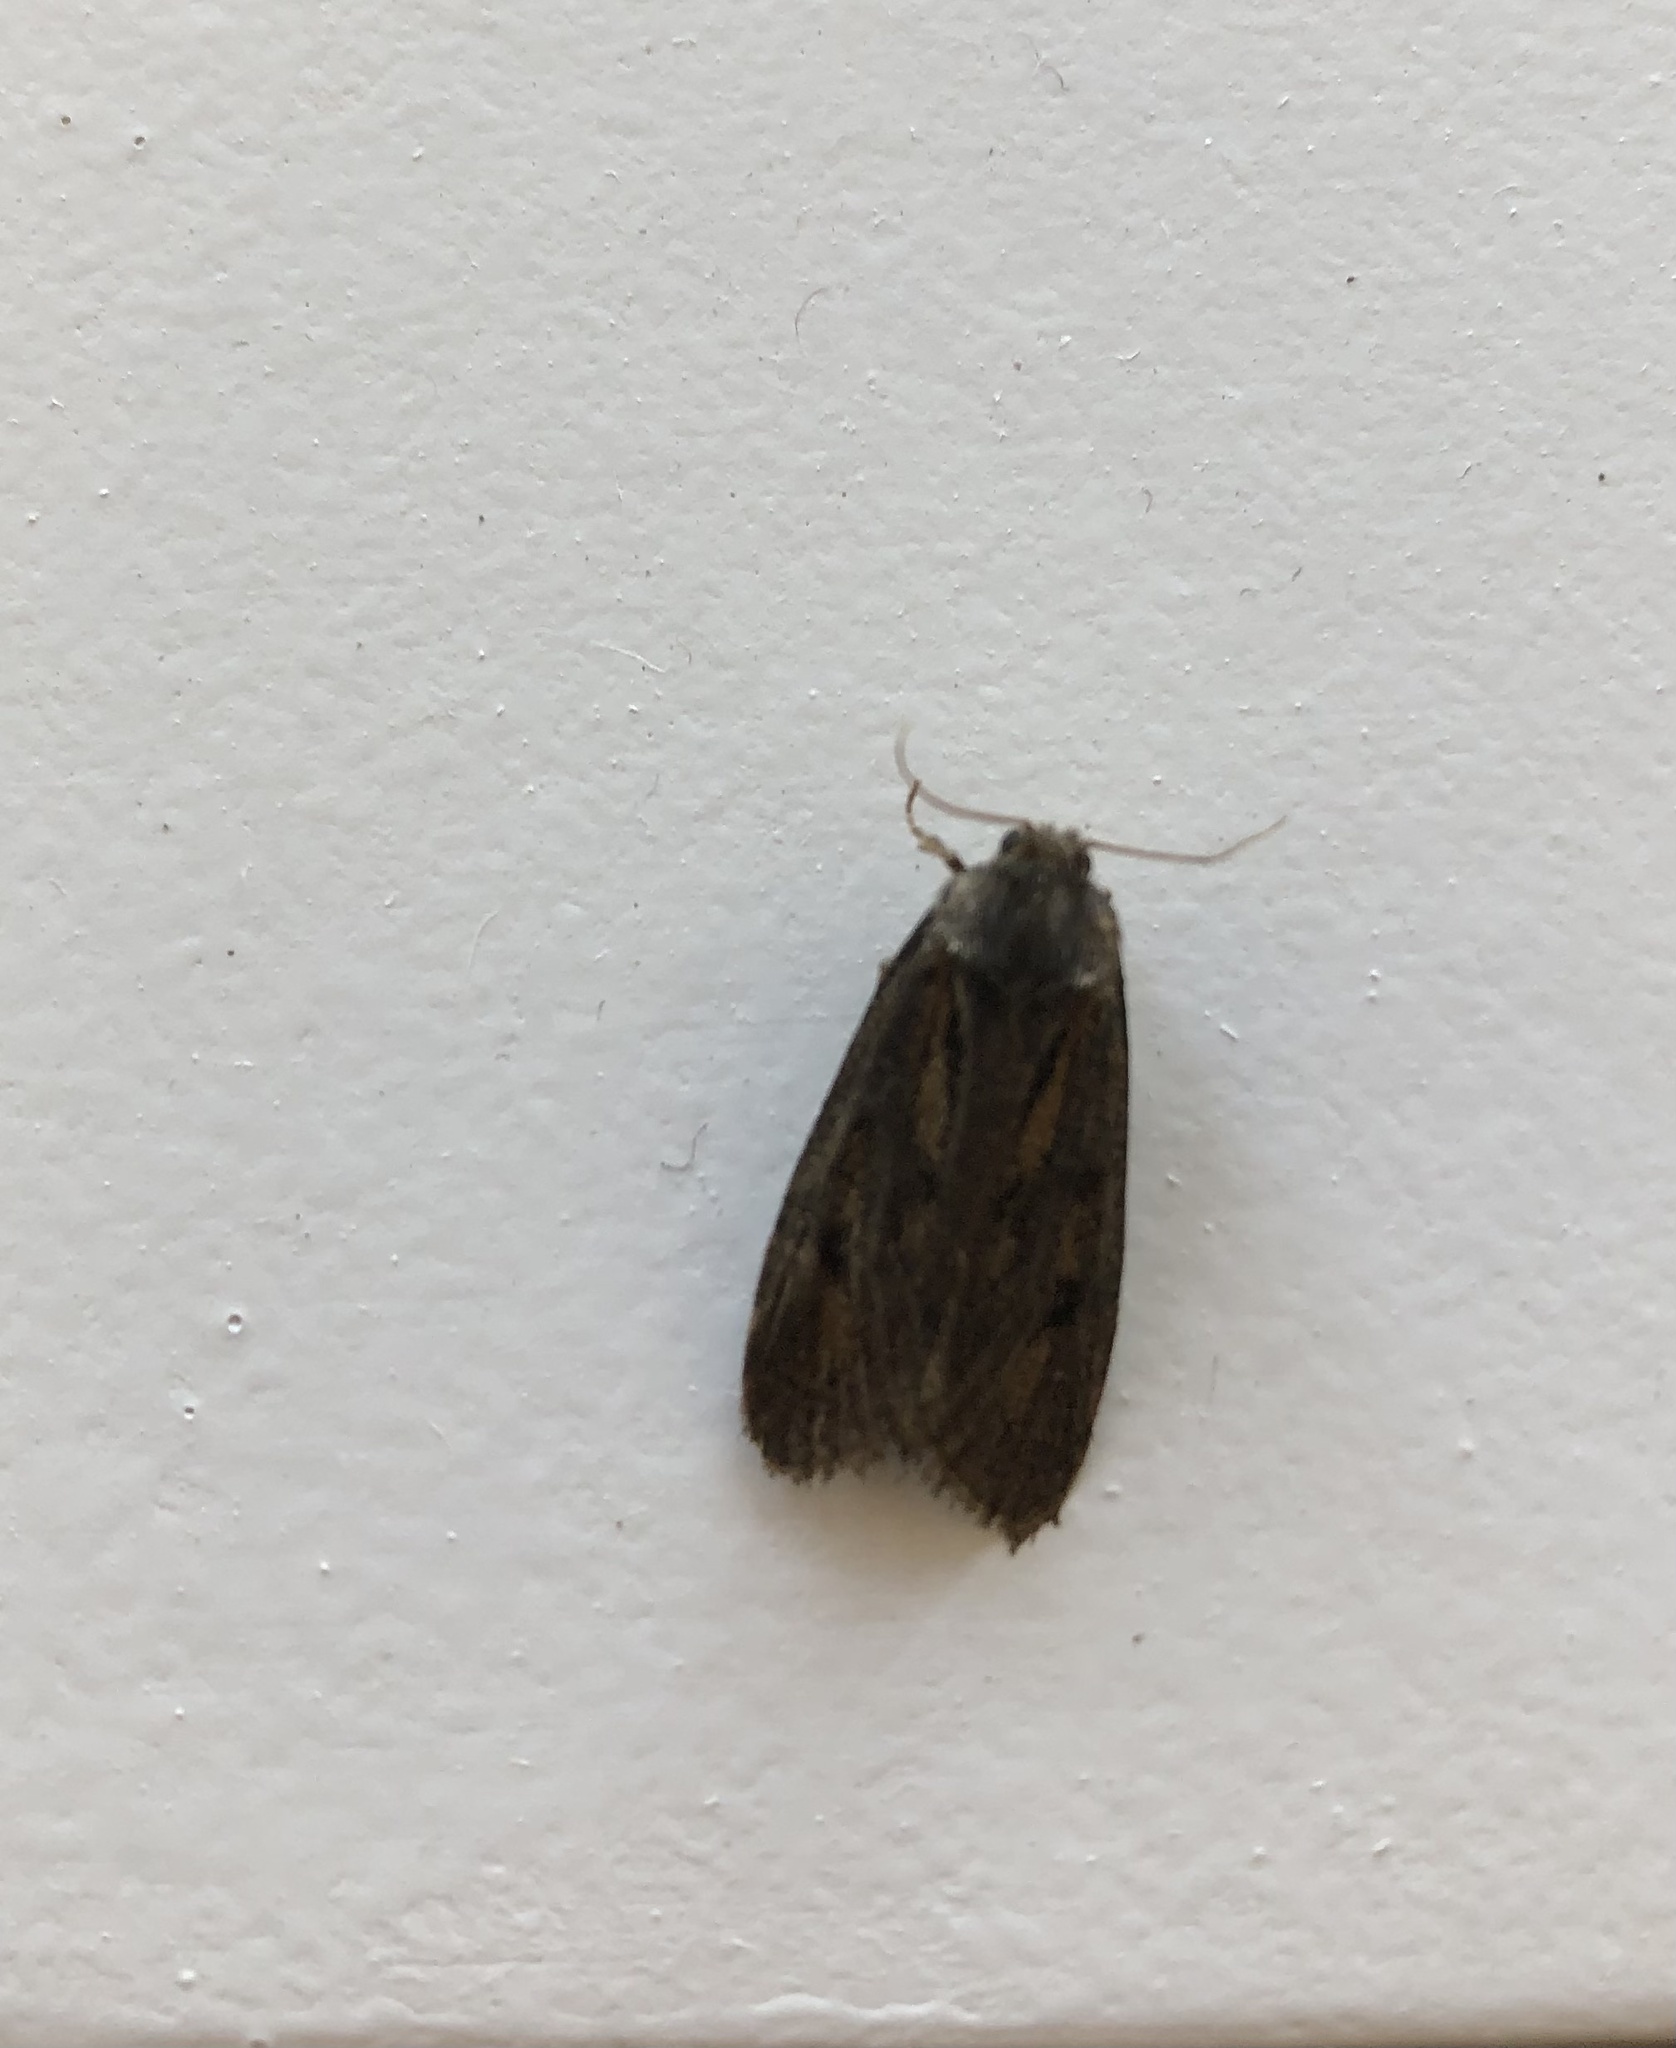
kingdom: Animalia
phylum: Arthropoda
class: Insecta
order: Lepidoptera
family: Tineidae
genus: Acrolophus
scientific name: Acrolophus popeanella
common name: Clemens' grass tubeworm moth
